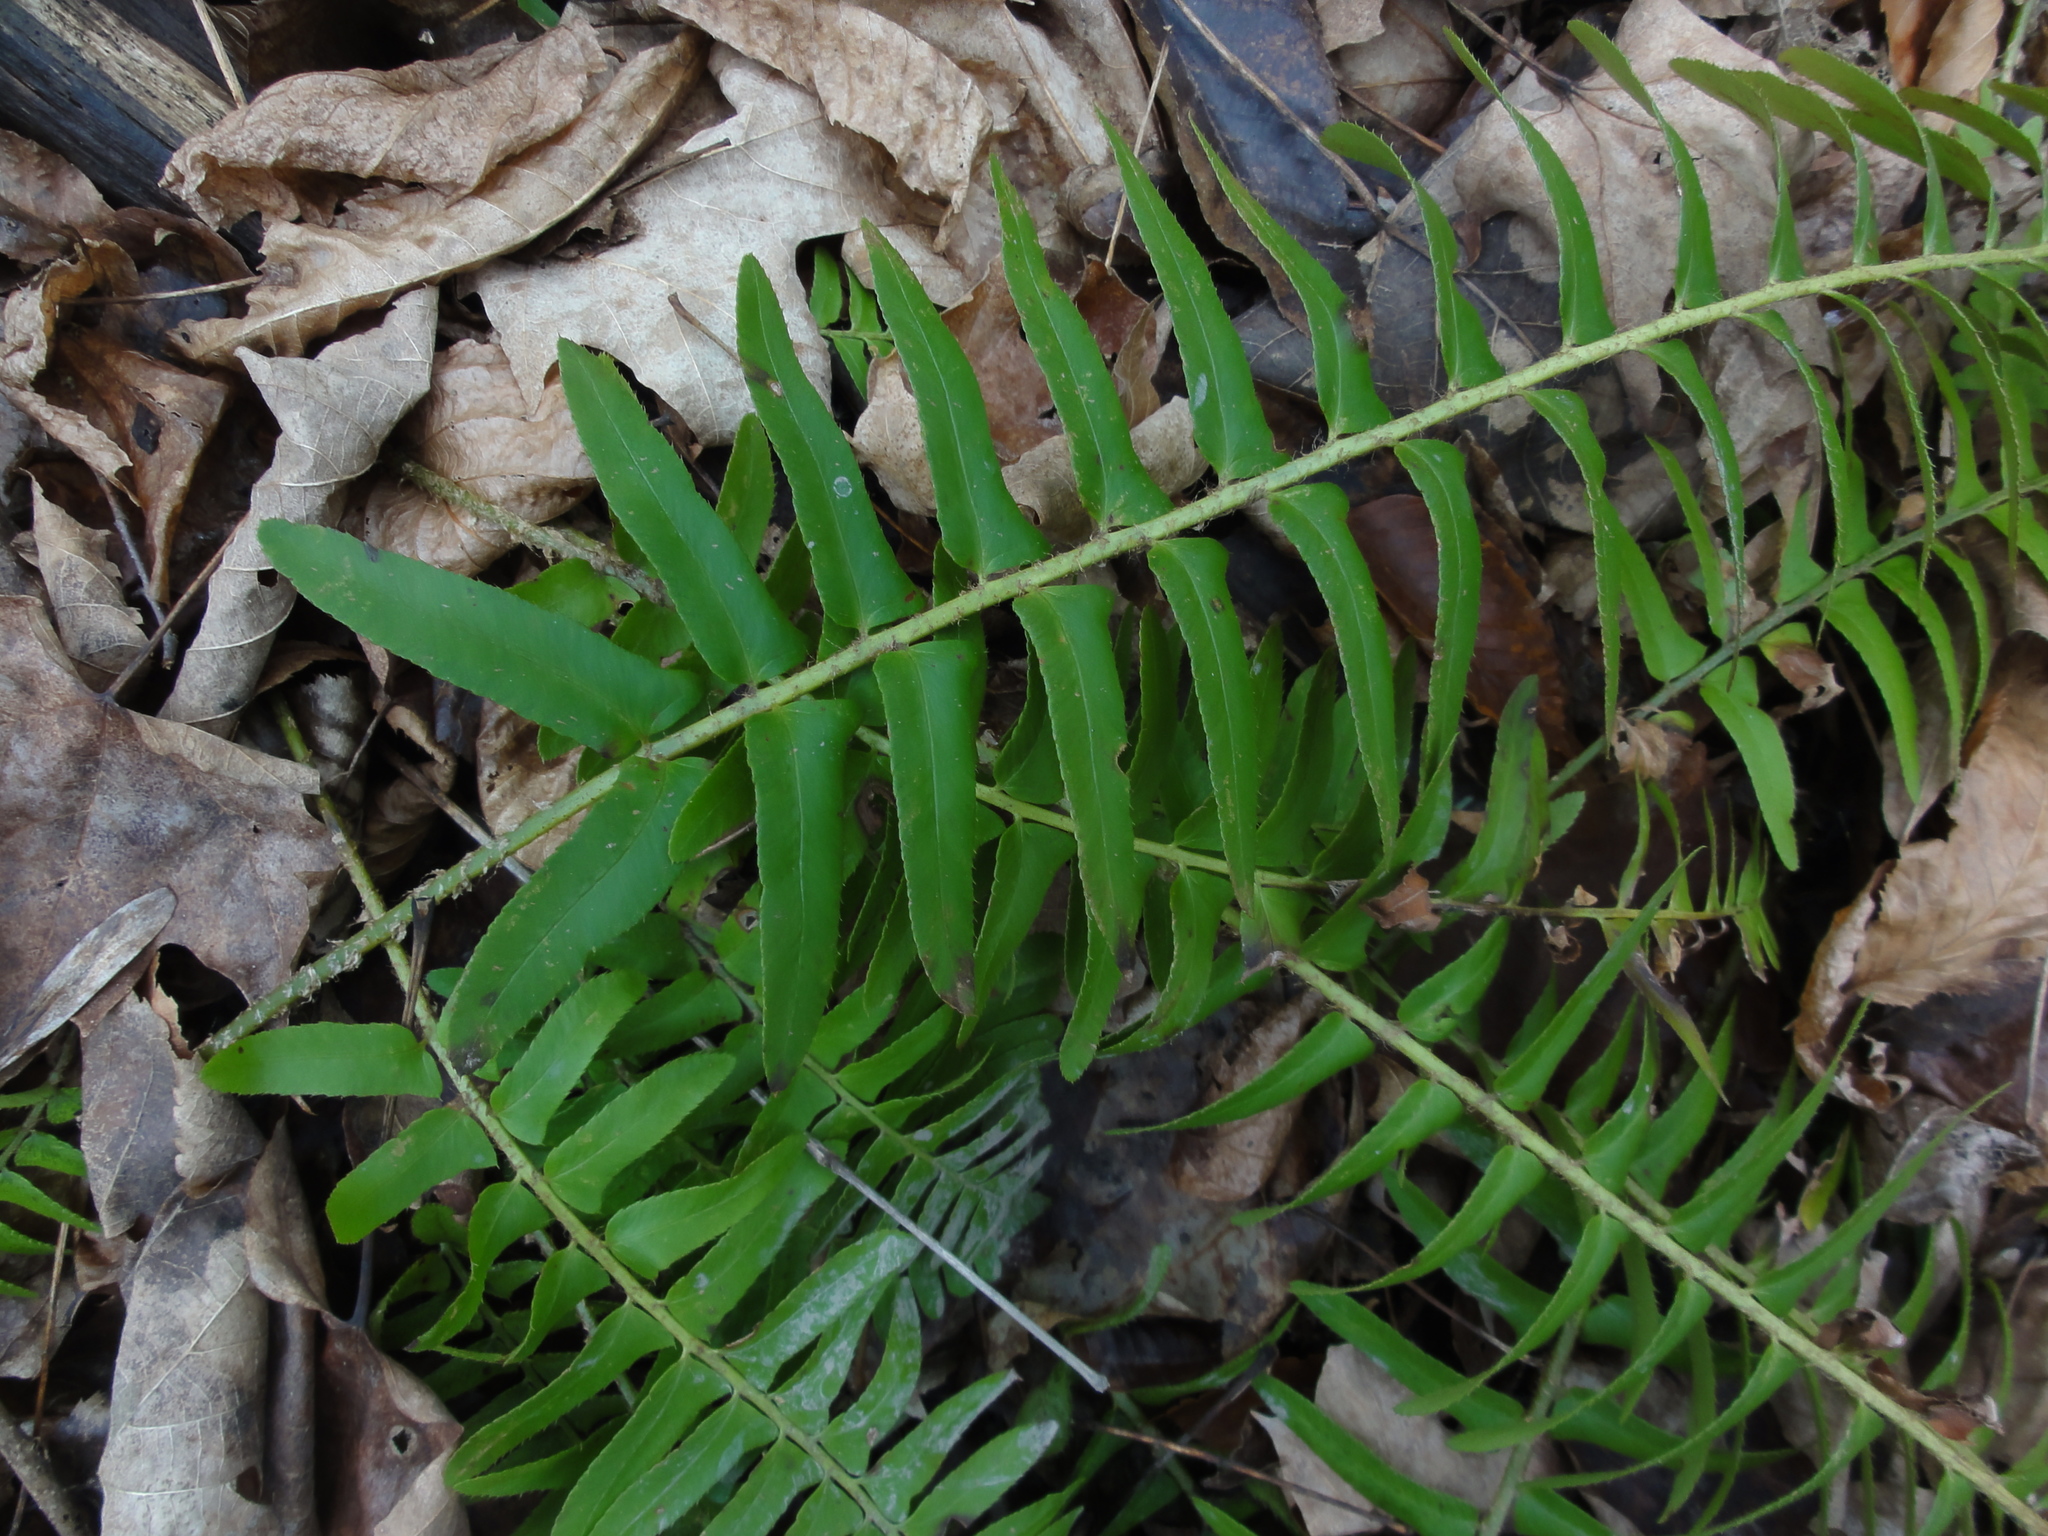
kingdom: Plantae
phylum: Tracheophyta
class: Polypodiopsida
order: Polypodiales
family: Dryopteridaceae
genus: Polystichum
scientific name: Polystichum acrostichoides
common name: Christmas fern
